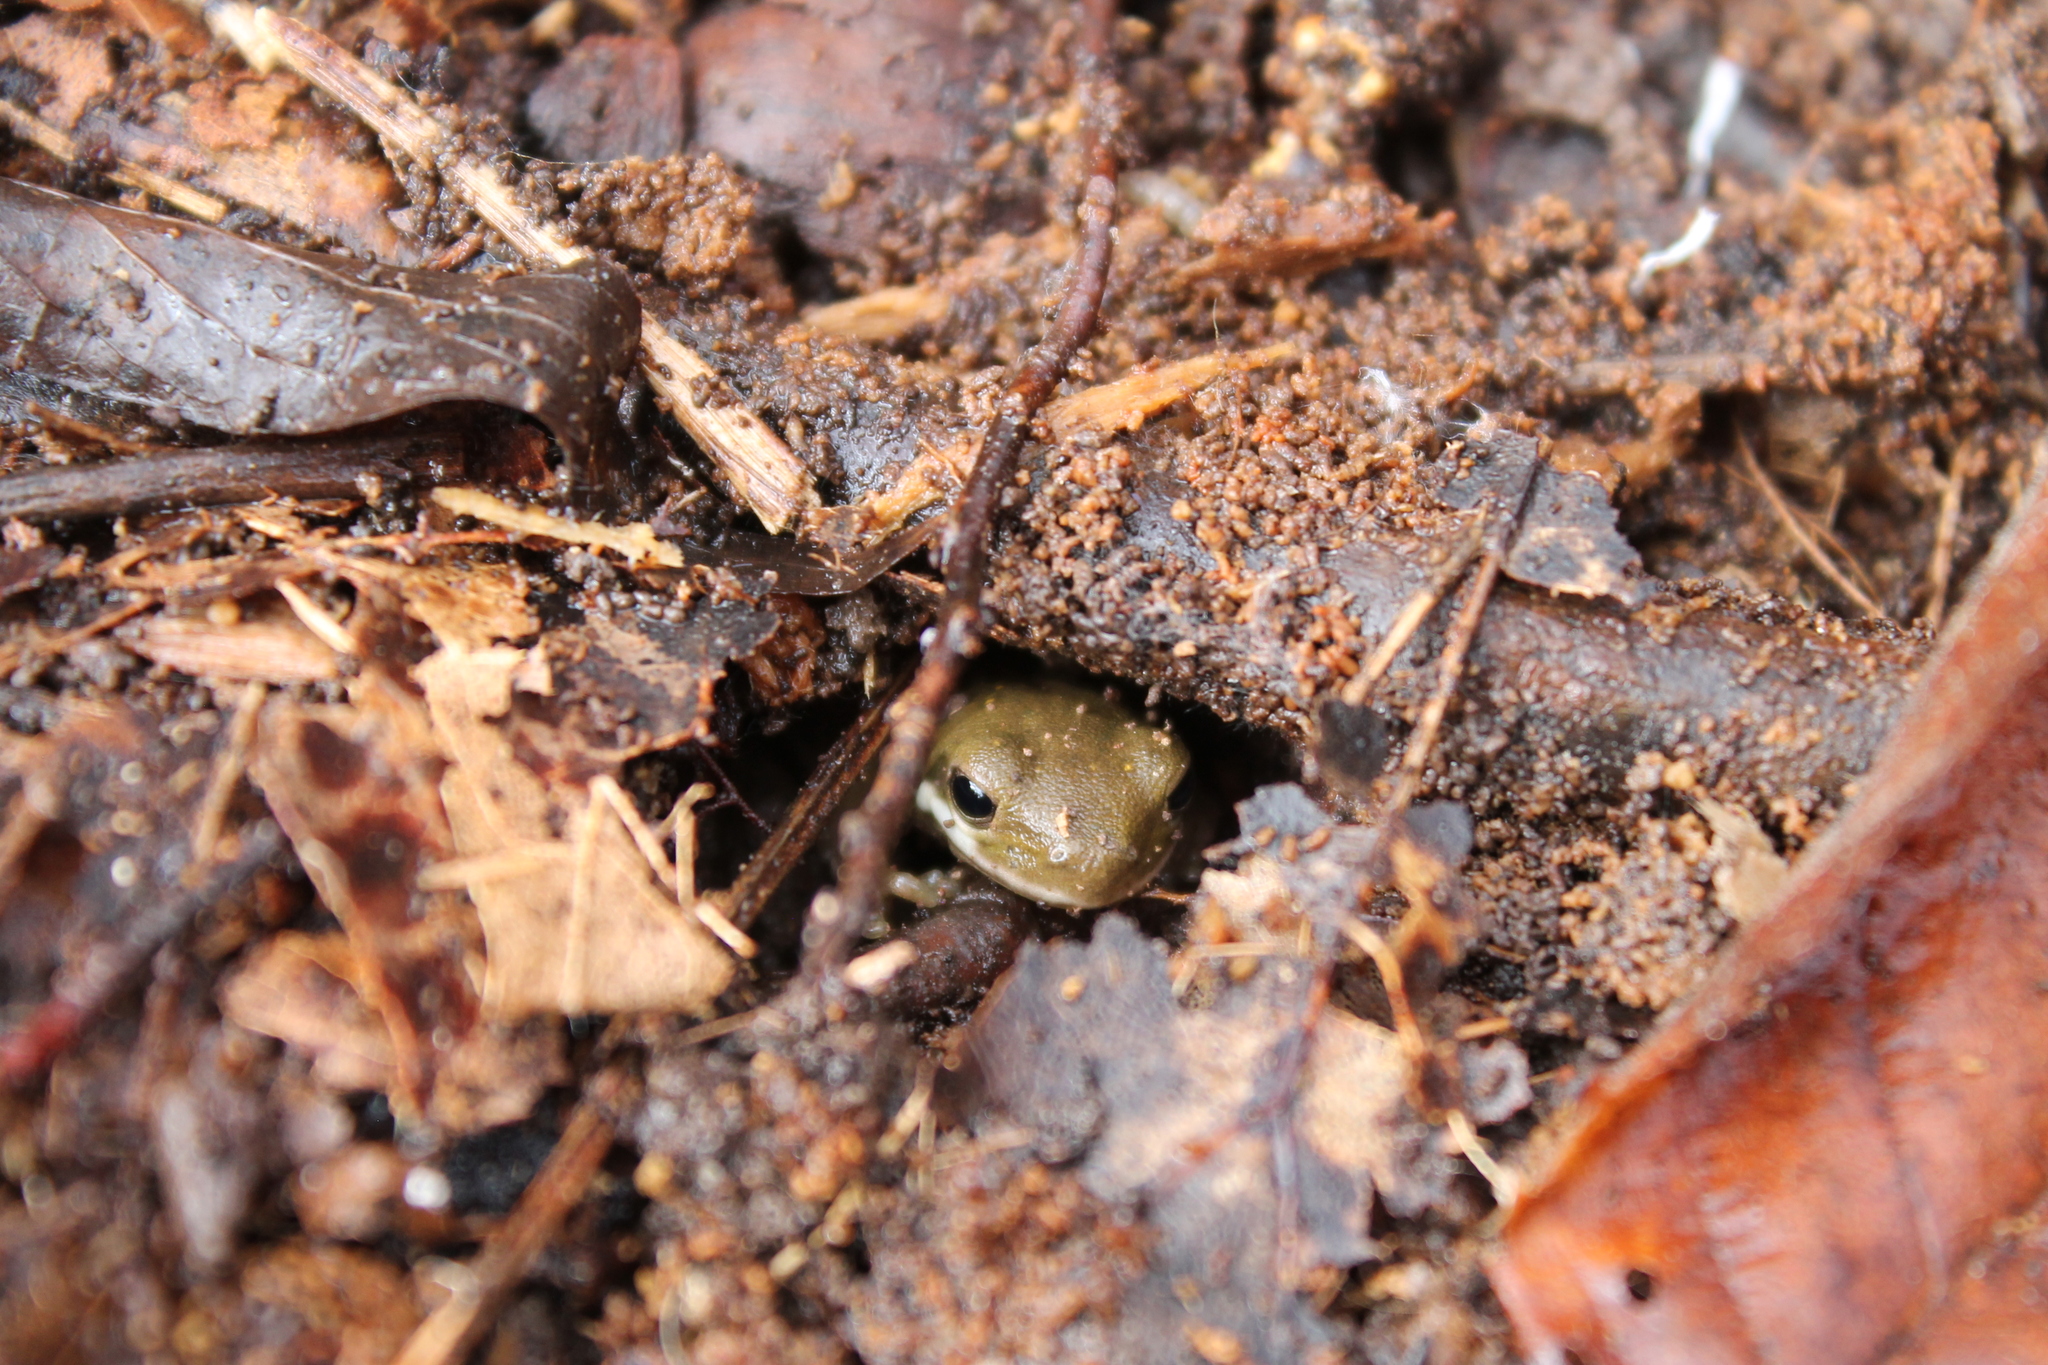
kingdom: Animalia
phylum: Chordata
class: Amphibia
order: Anura
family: Hylidae
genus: Dryophytes
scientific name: Dryophytes cinereus
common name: Green treefrog
